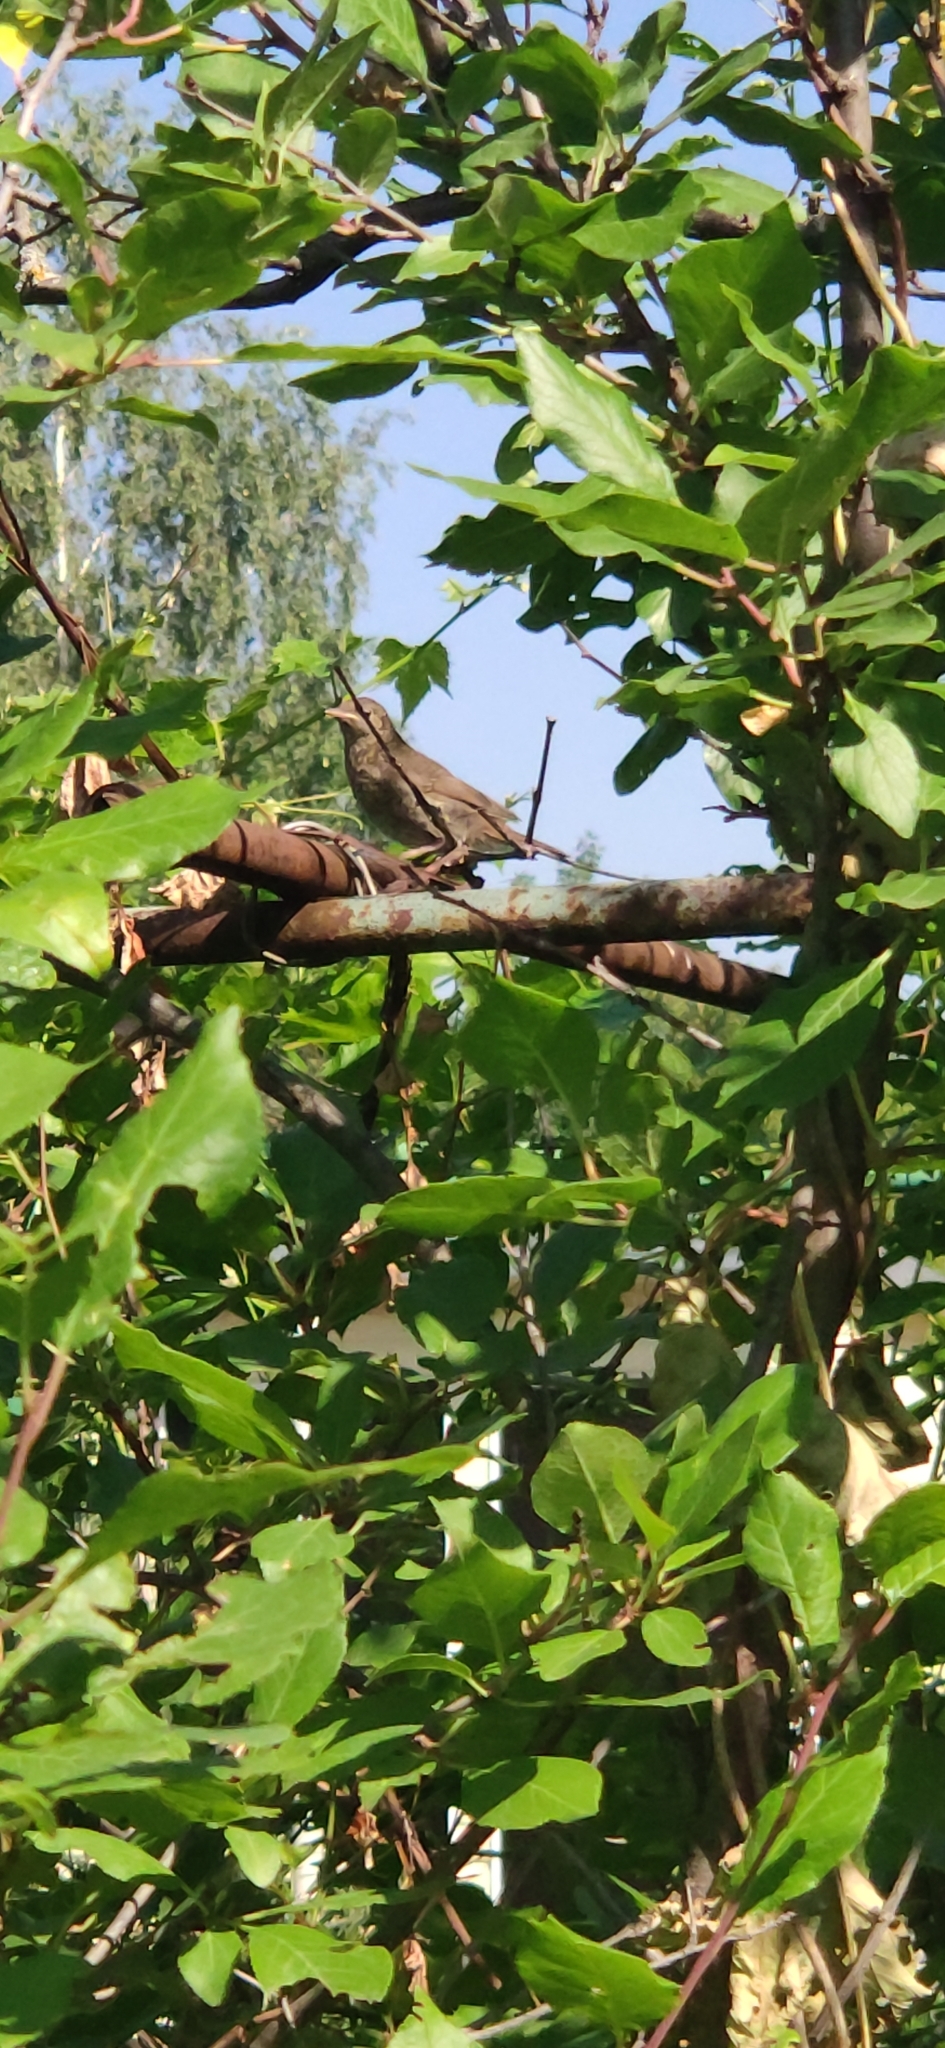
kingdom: Animalia
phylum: Chordata
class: Aves
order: Passeriformes
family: Muscicapidae
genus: Luscinia
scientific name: Luscinia luscinia
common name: Thrush nightingale
